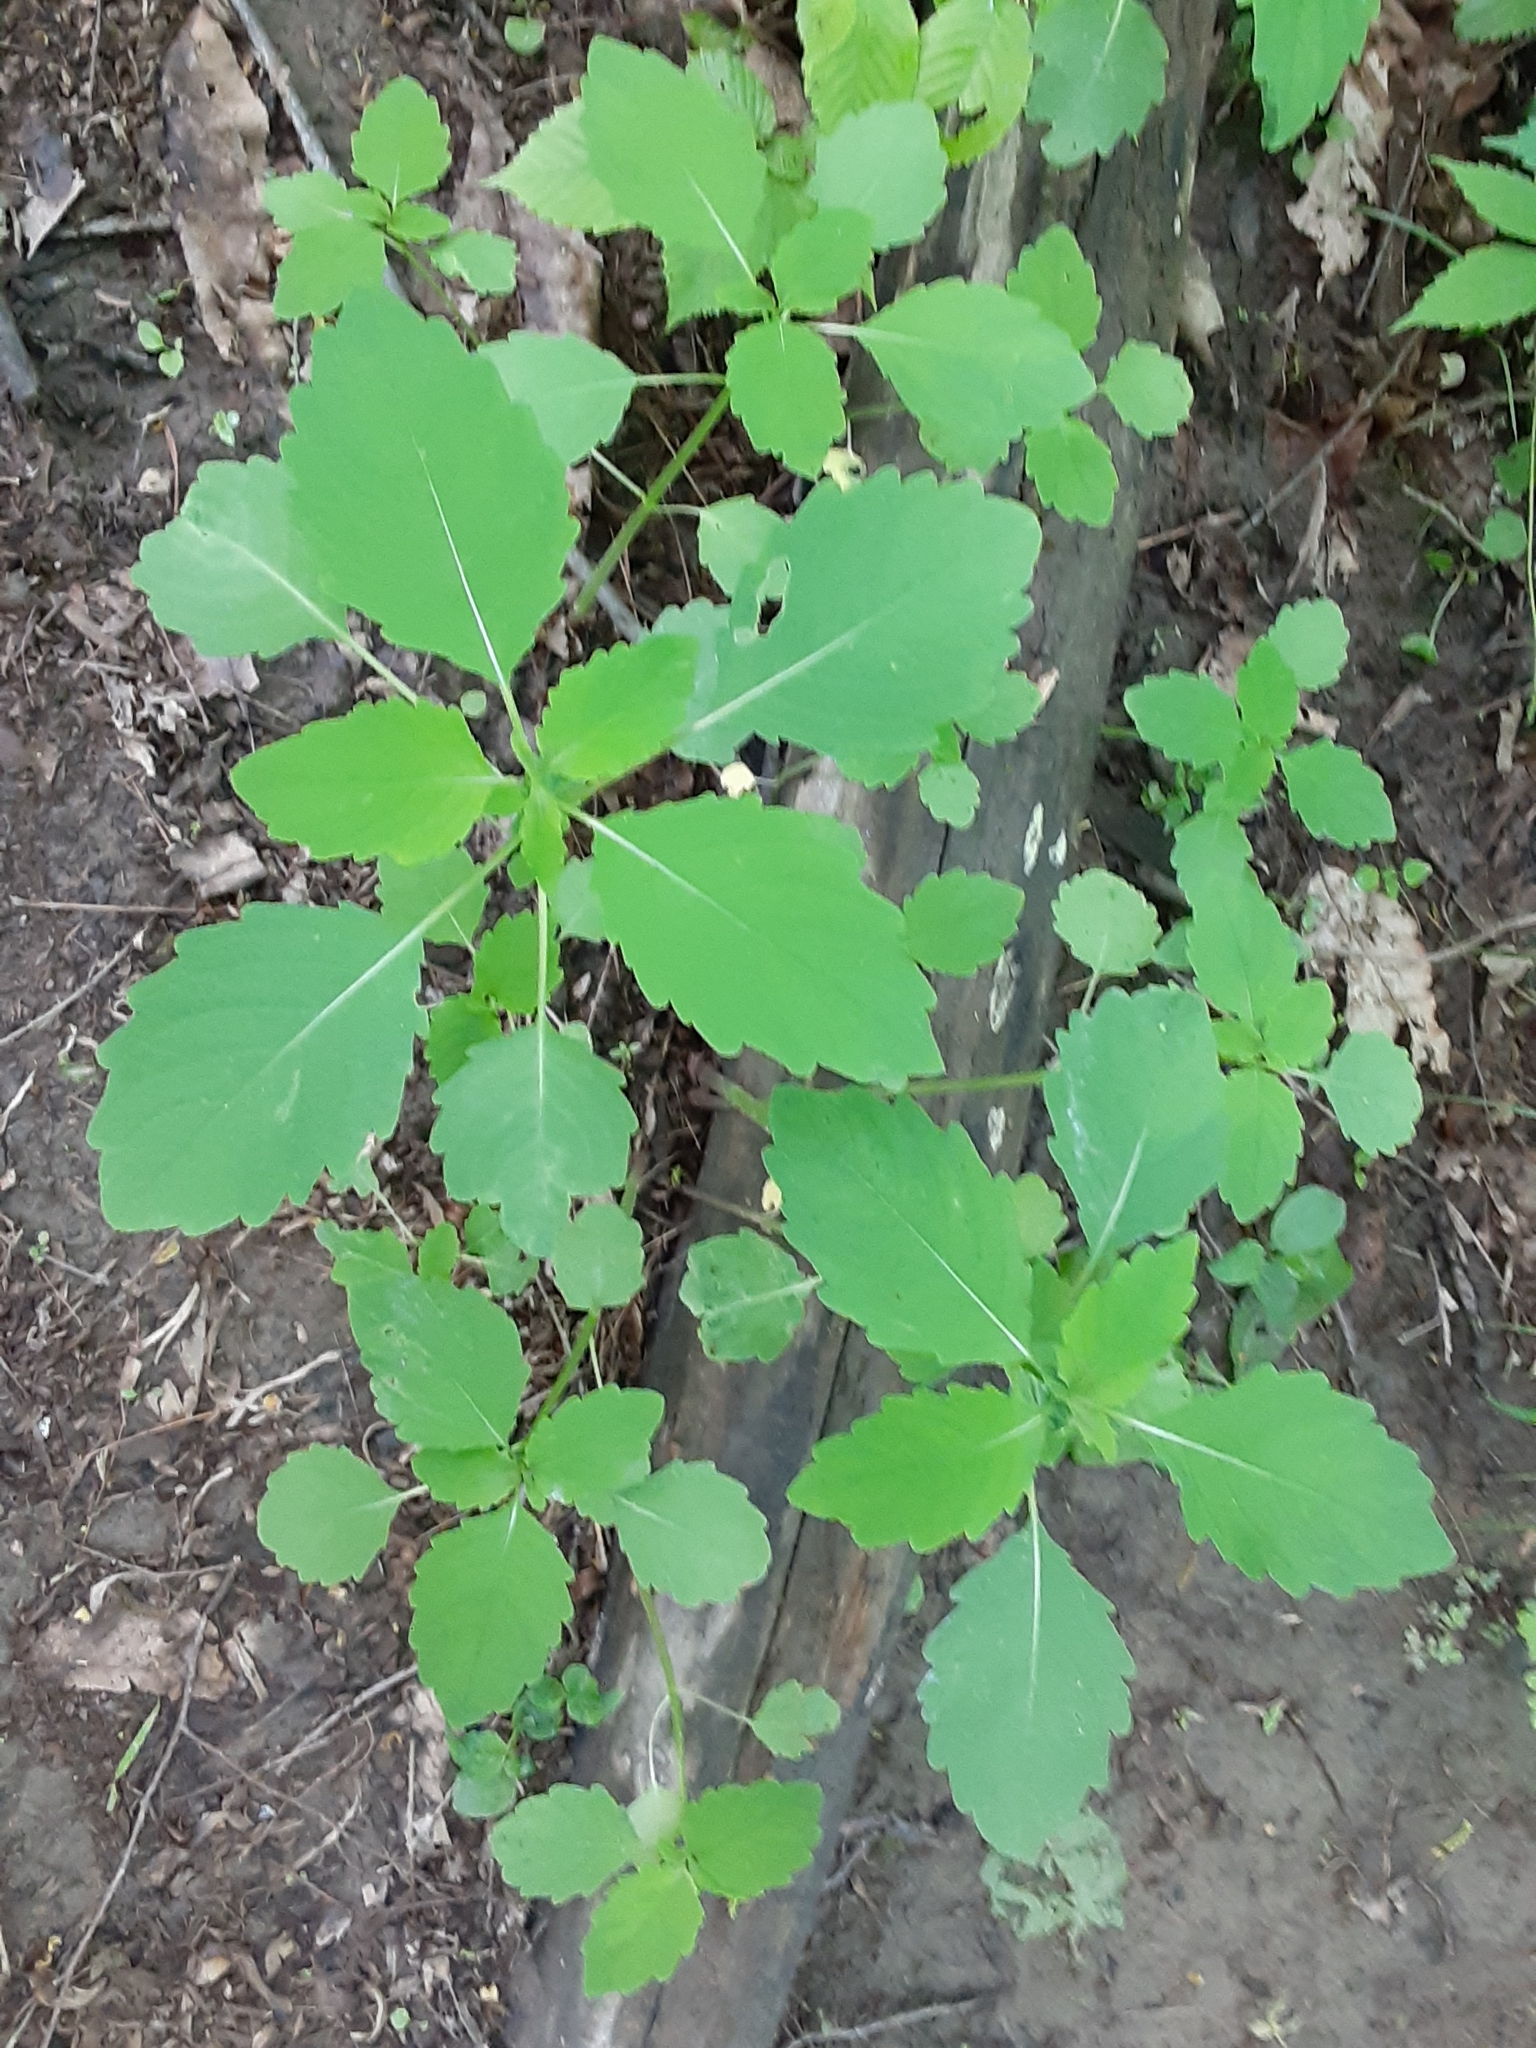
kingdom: Plantae
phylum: Tracheophyta
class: Magnoliopsida
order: Ericales
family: Balsaminaceae
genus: Impatiens
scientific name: Impatiens
